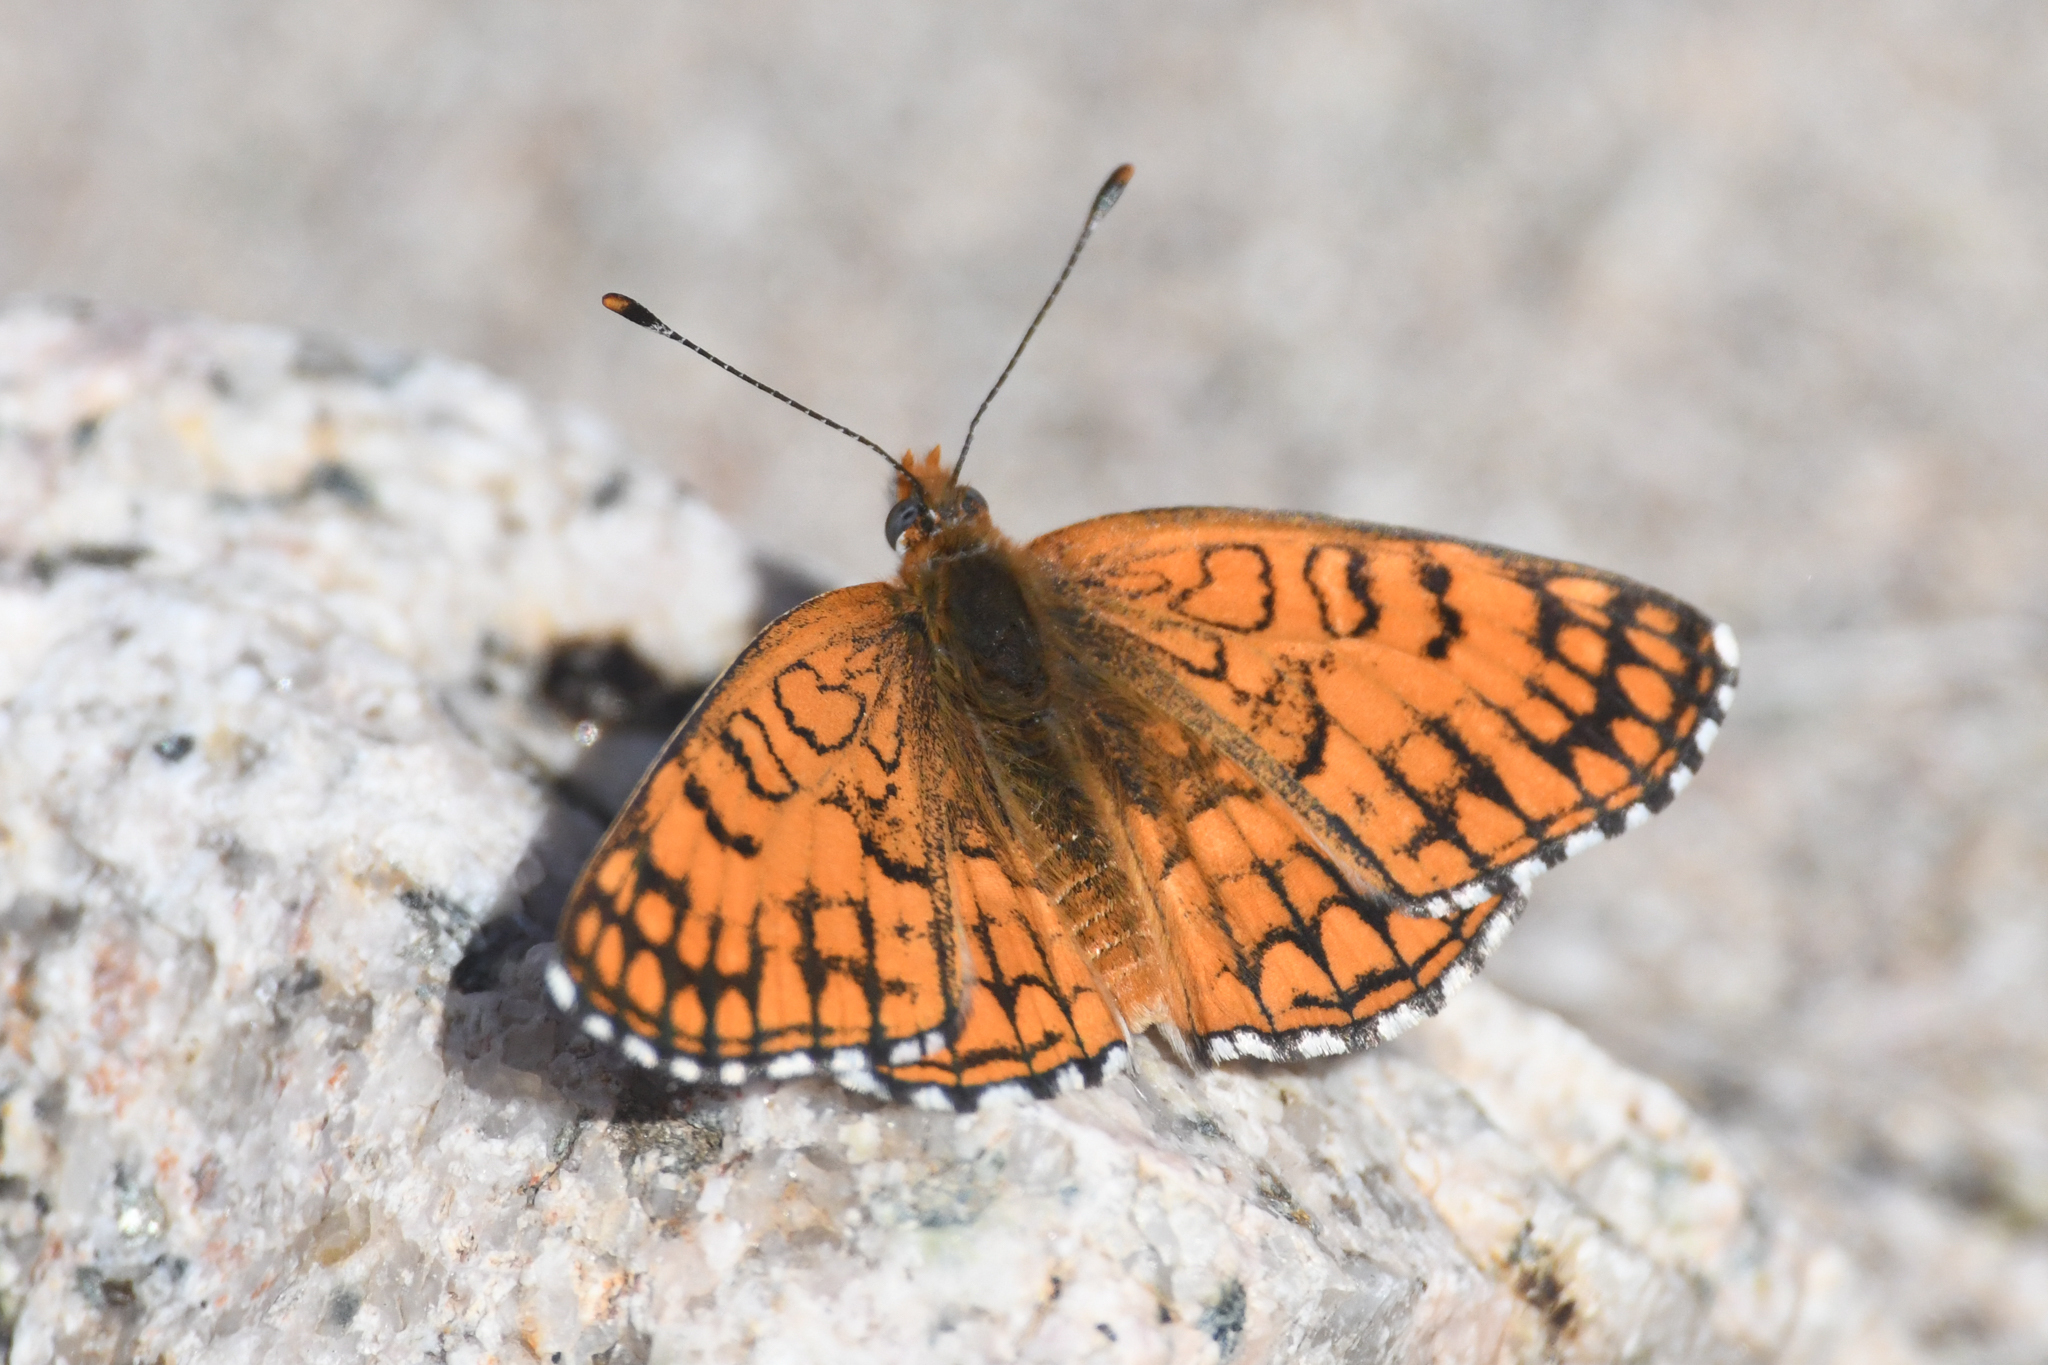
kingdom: Animalia
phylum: Arthropoda
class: Insecta
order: Lepidoptera
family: Nymphalidae
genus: Chlosyne
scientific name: Chlosyne acastus
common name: Sagebrush checkerspot
